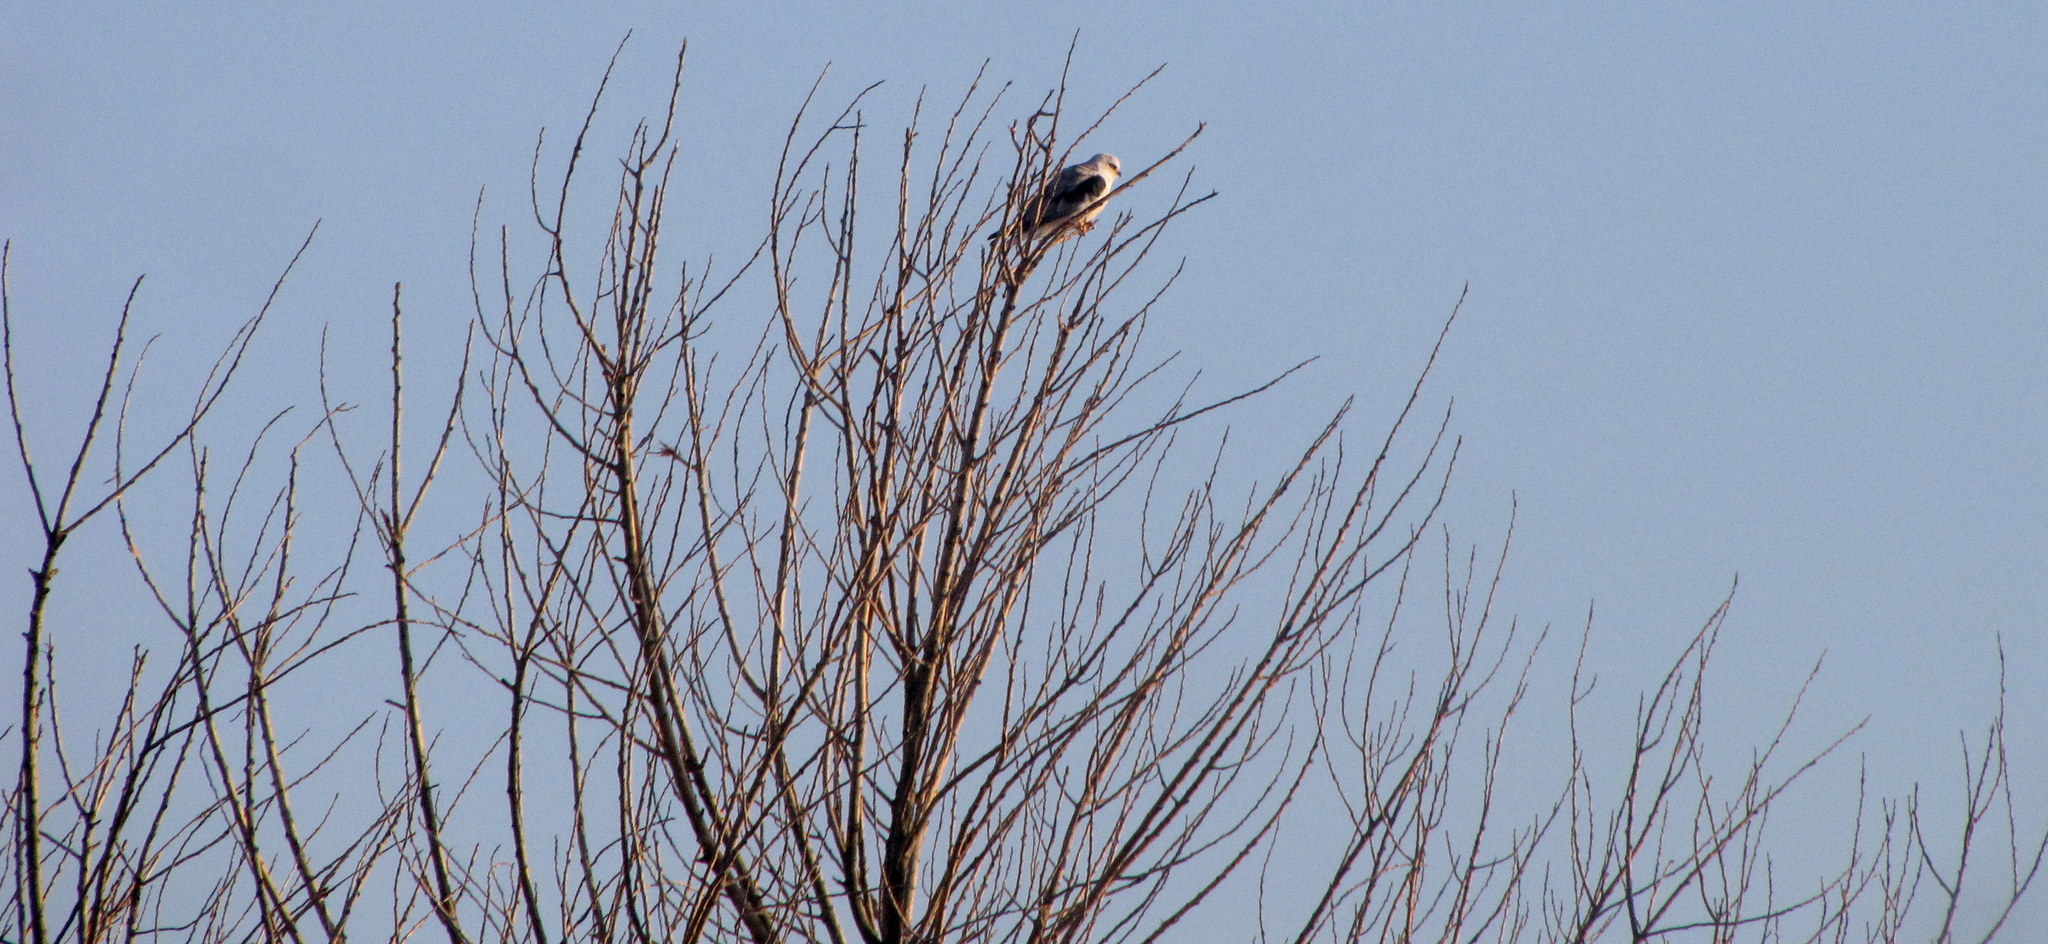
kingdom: Animalia
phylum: Chordata
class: Aves
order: Accipitriformes
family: Accipitridae
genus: Elanus
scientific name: Elanus leucurus
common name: White-tailed kite
